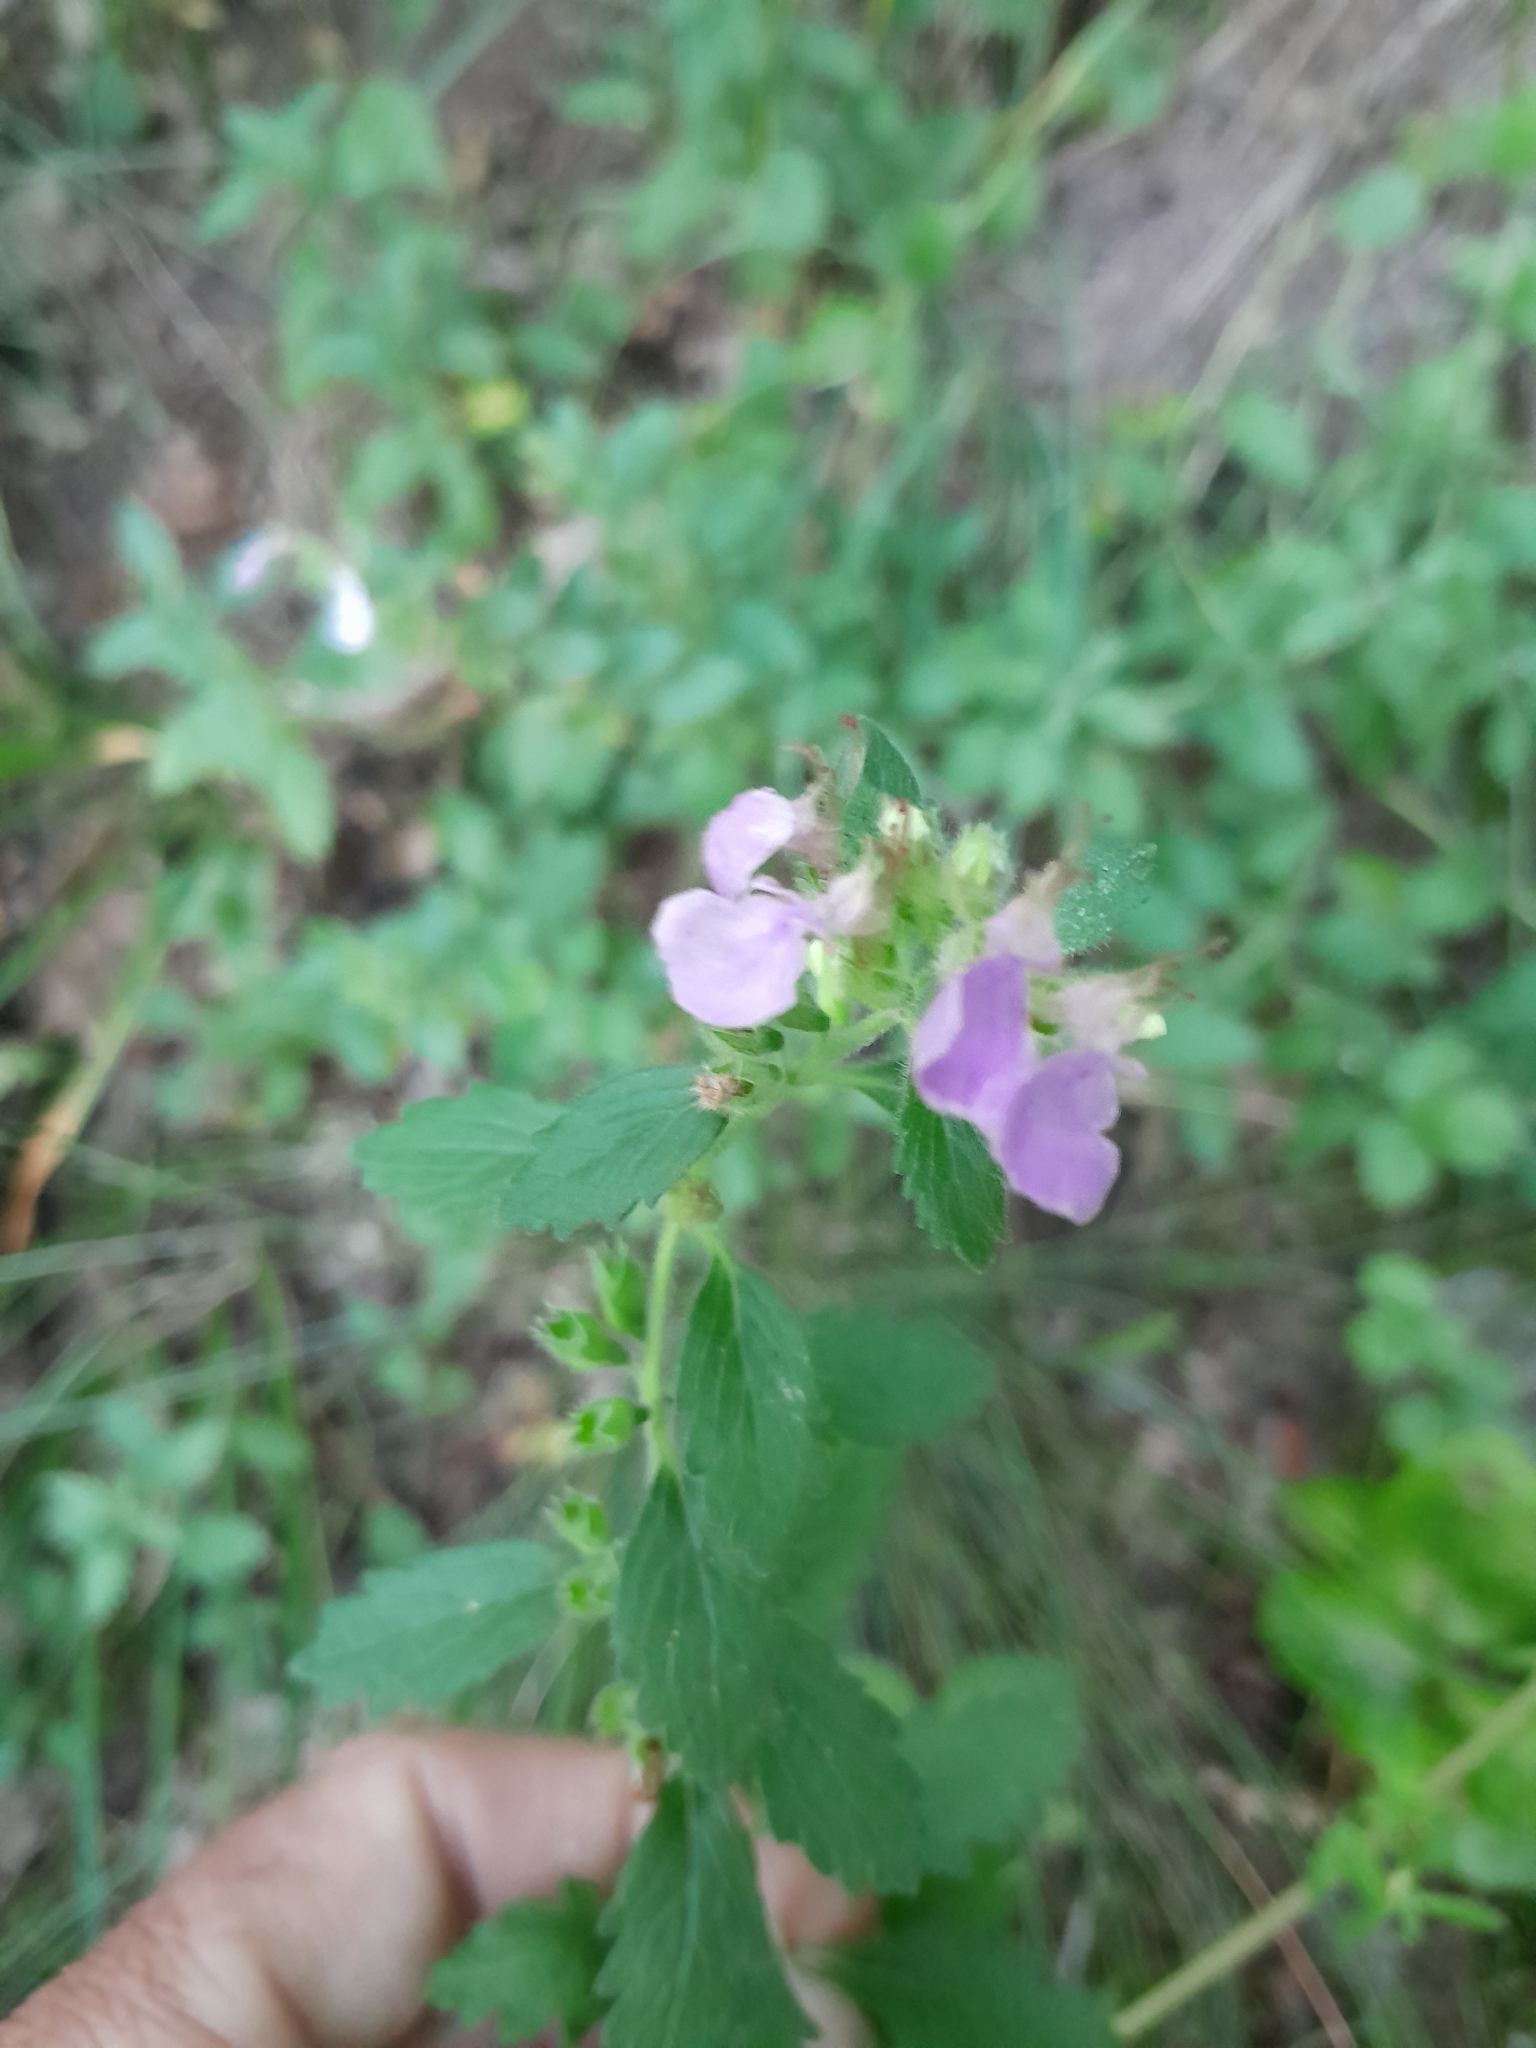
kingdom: Plantae
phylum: Tracheophyta
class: Magnoliopsida
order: Lamiales
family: Lamiaceae
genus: Teucrium
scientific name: Teucrium chamaedrys
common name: Wall germander
